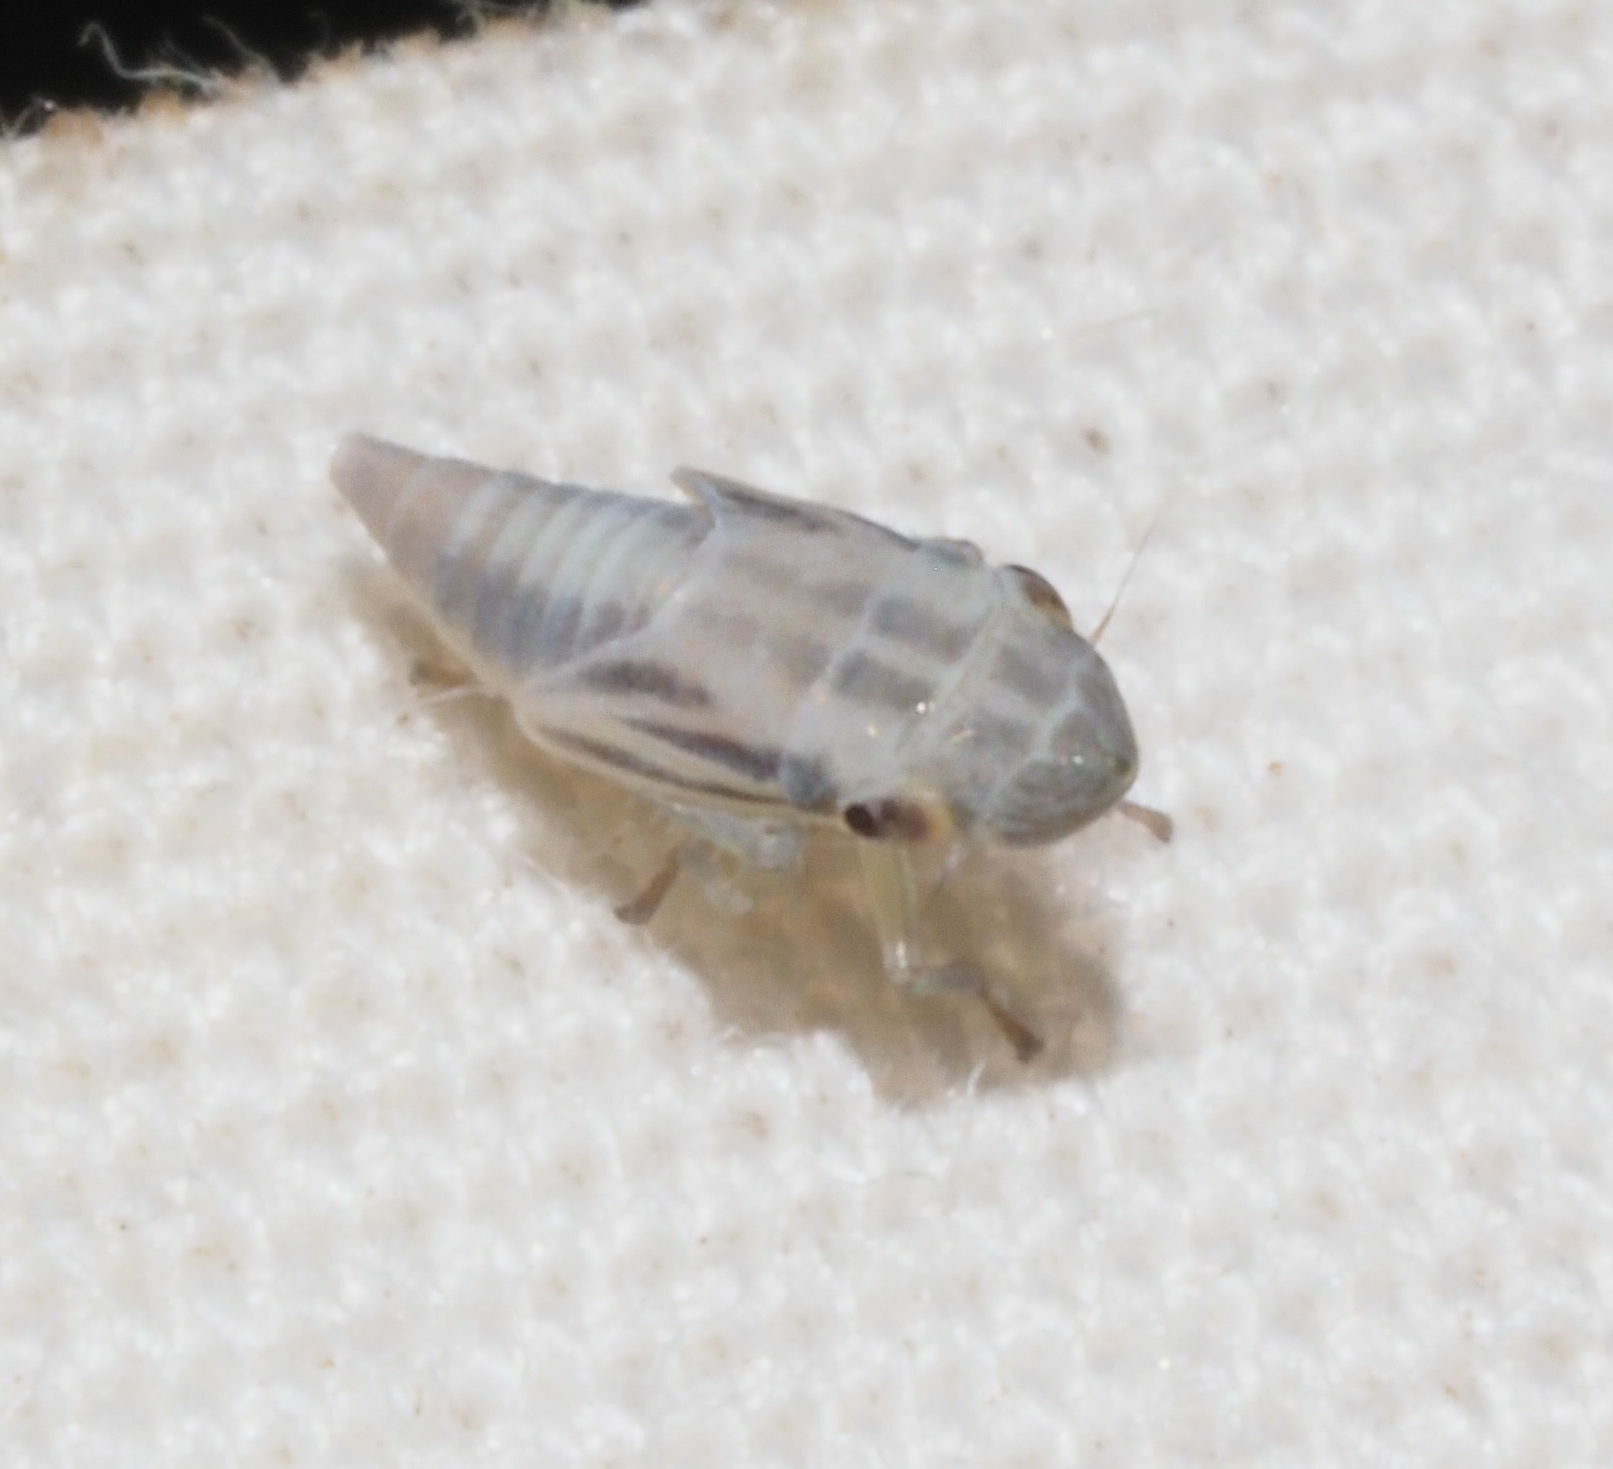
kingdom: Animalia
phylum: Arthropoda
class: Insecta
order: Hemiptera
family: Cicadellidae
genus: Xyphon
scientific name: Xyphon reticulatum
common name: Planthopper
